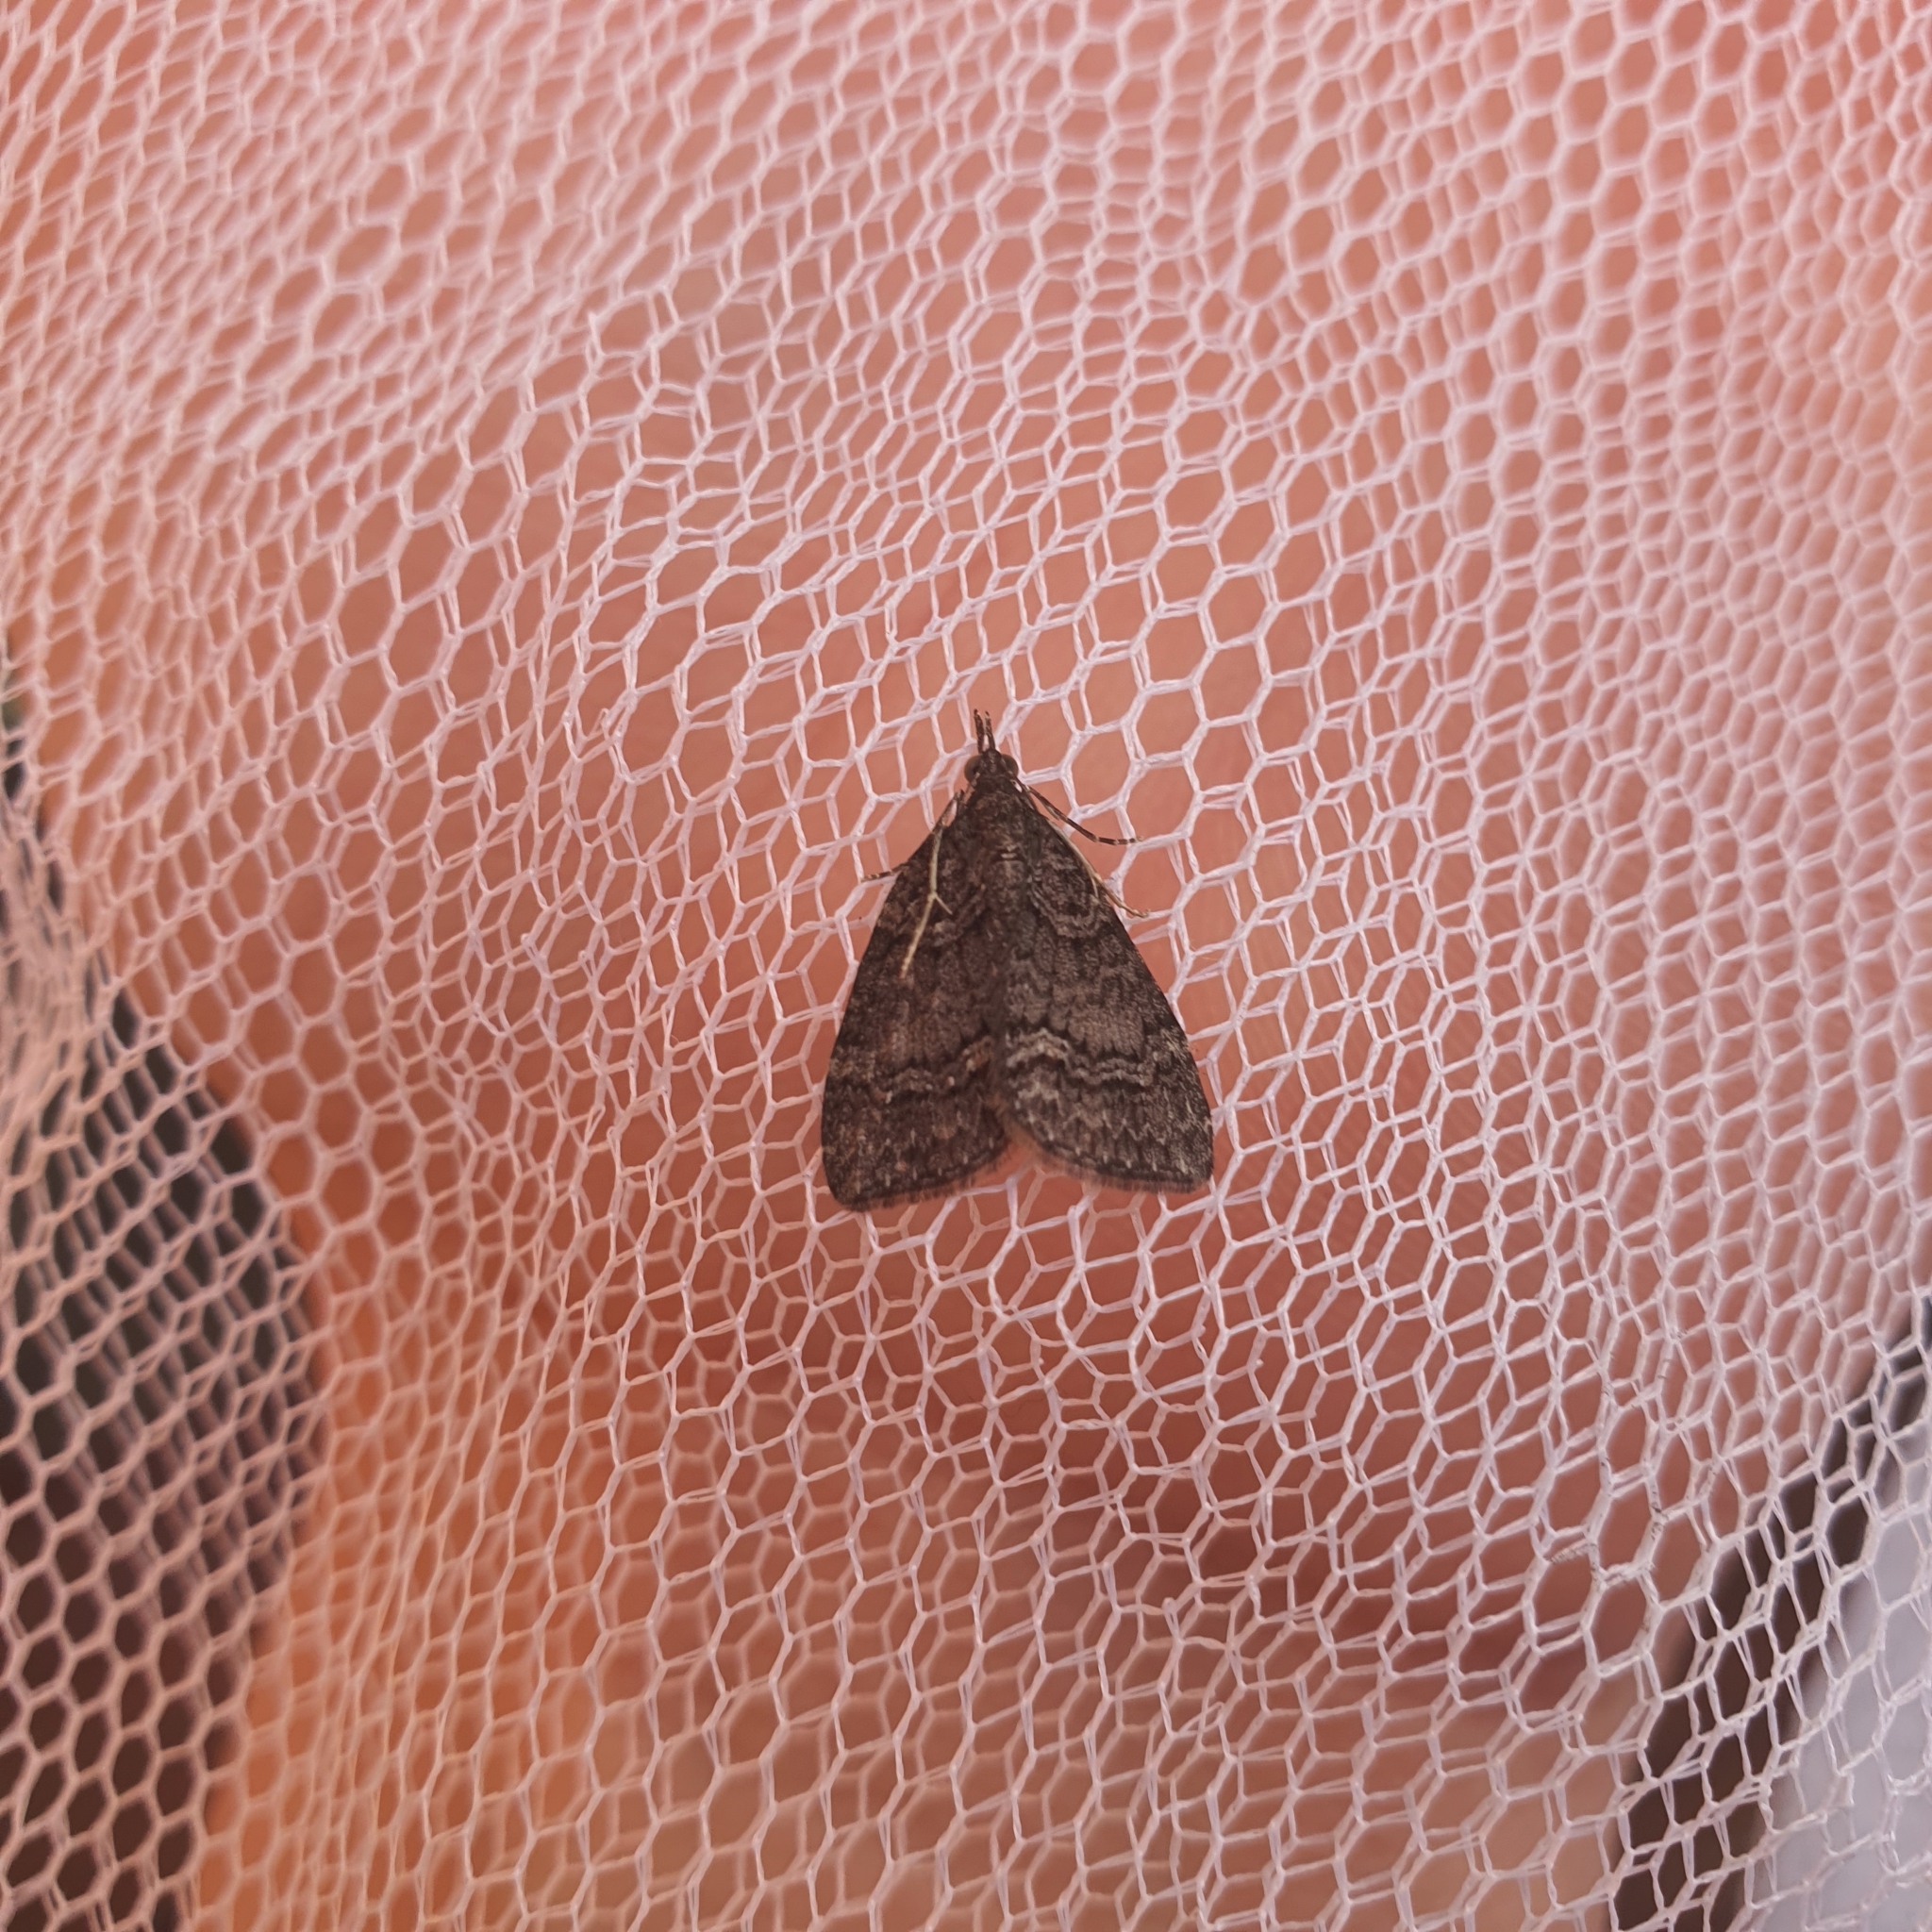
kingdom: Animalia
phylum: Arthropoda
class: Insecta
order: Lepidoptera
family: Geometridae
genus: Microdes
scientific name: Microdes squamulata
